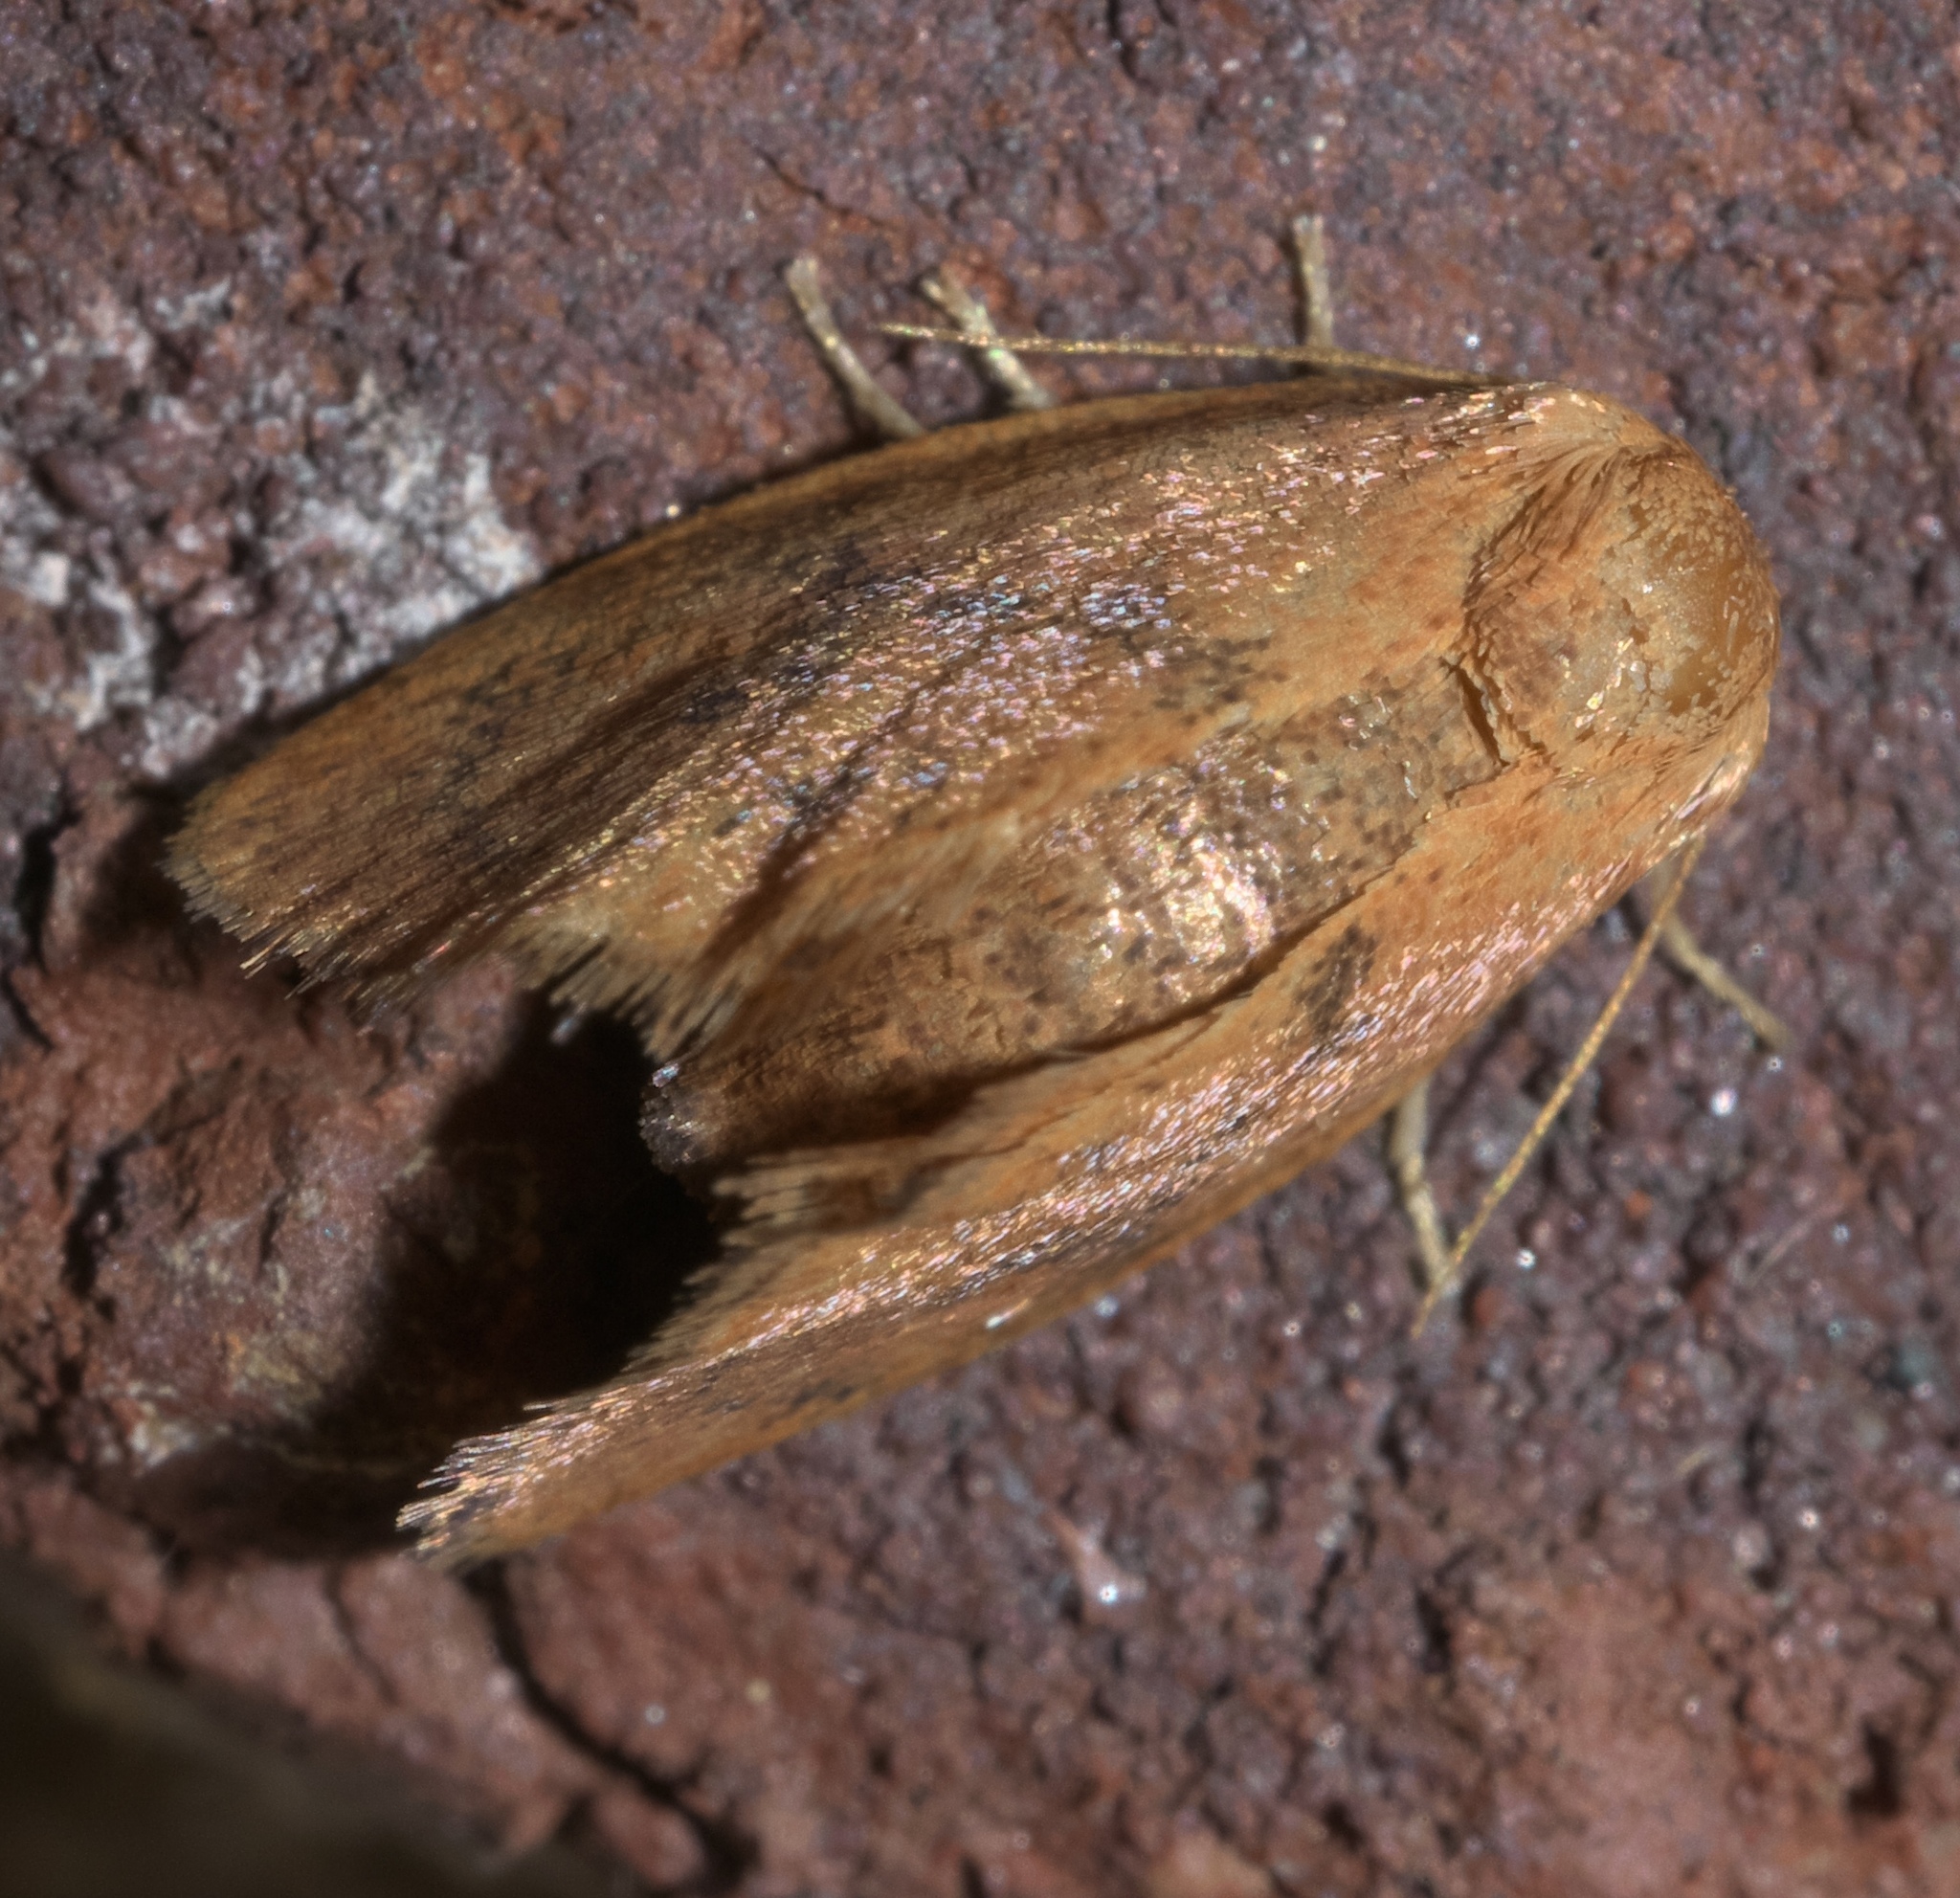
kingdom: Animalia
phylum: Arthropoda
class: Insecta
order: Lepidoptera
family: Limacodidae
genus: Heterogenea
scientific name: Heterogenea shurtleffi
